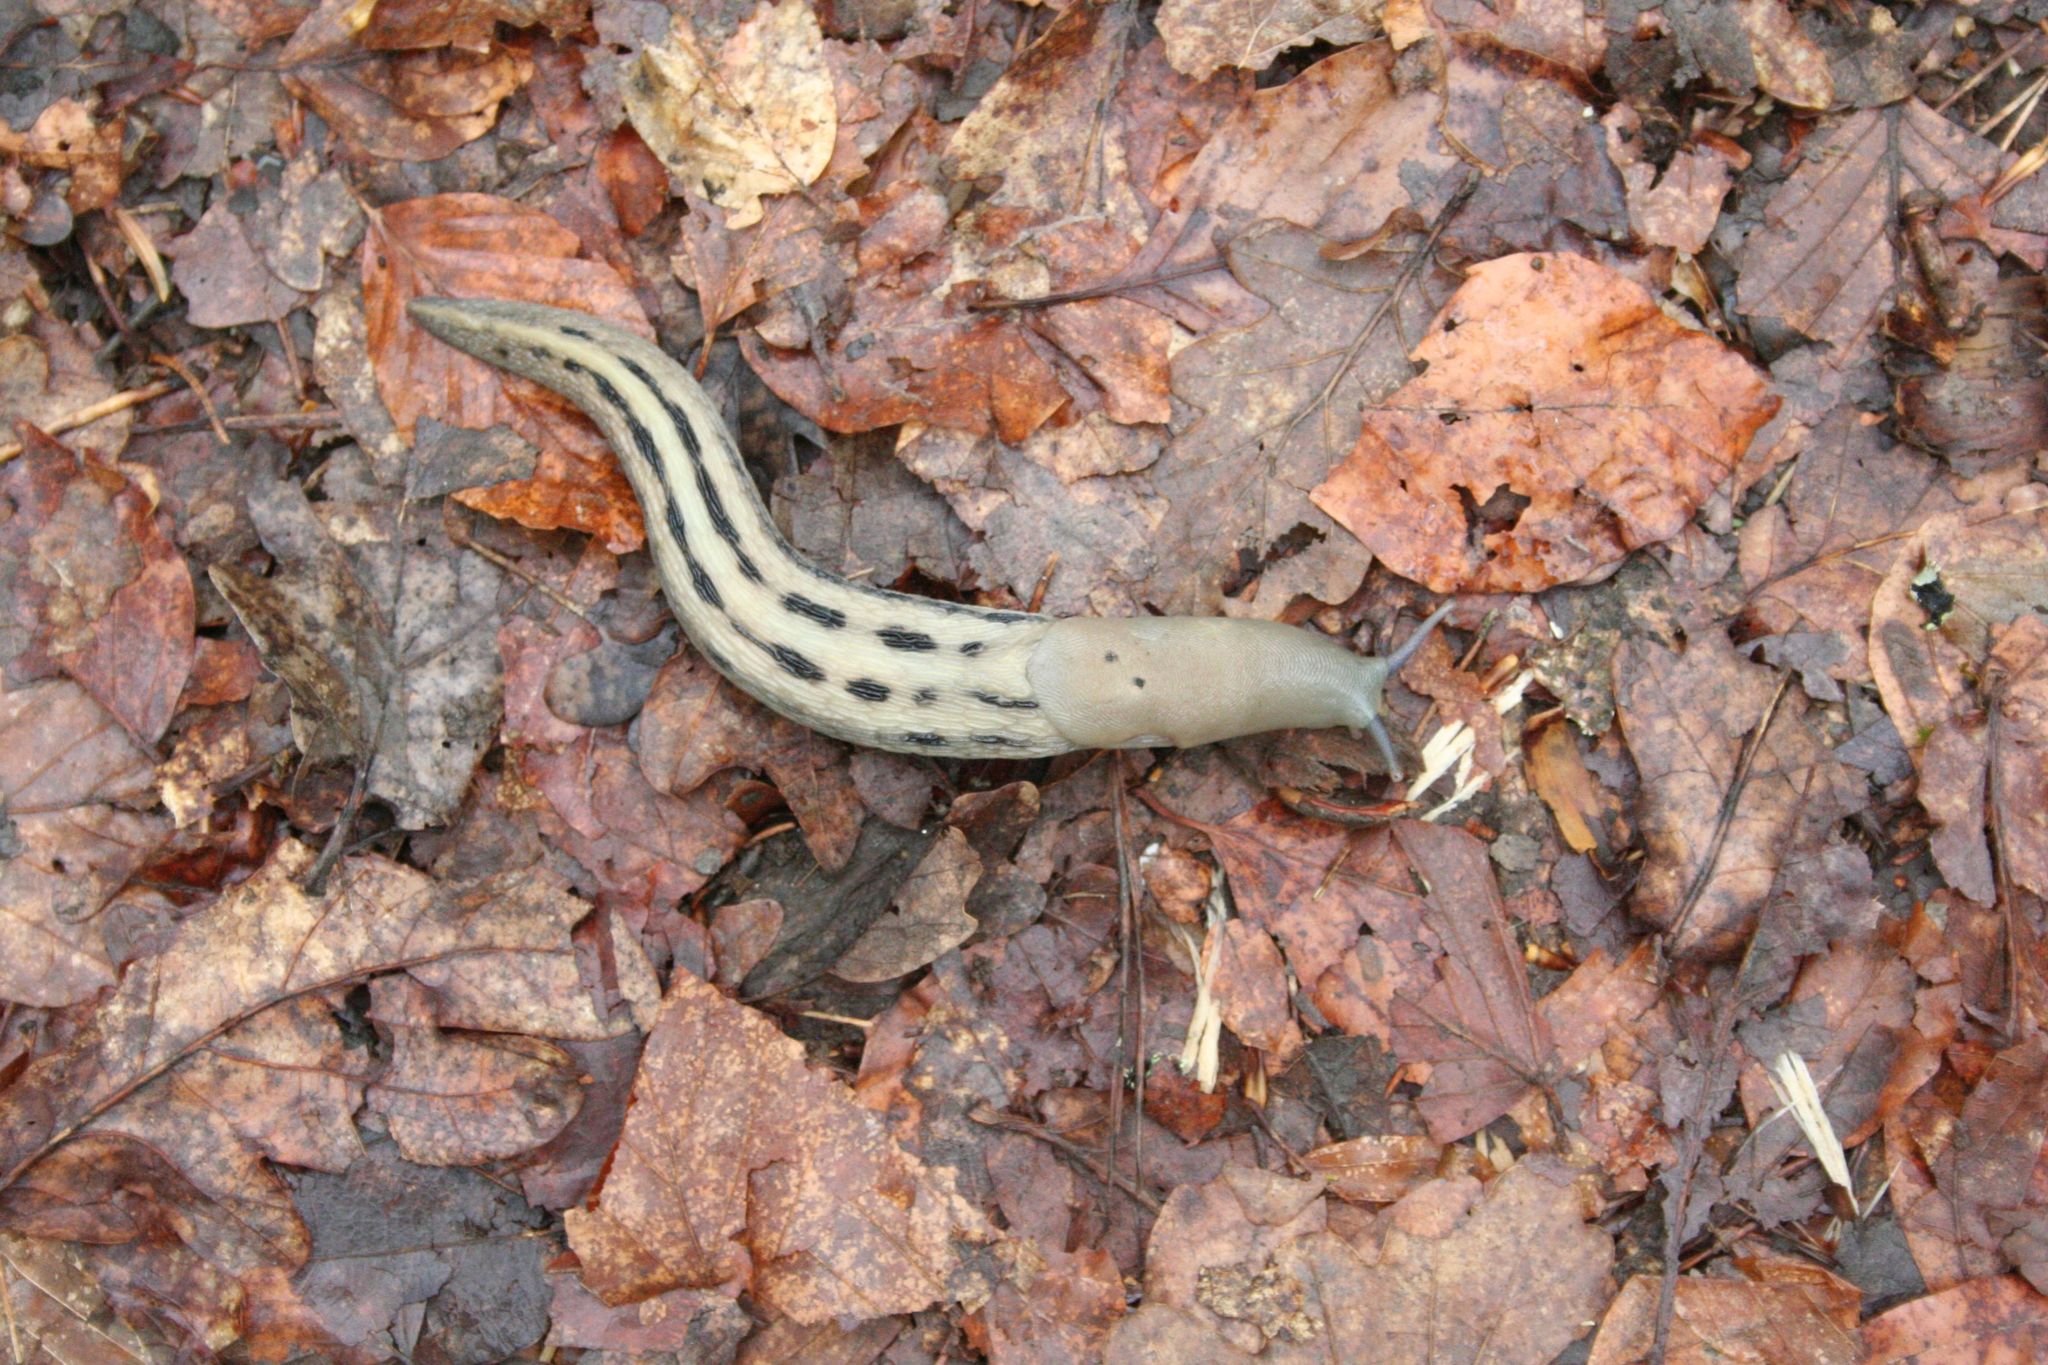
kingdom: Animalia
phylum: Mollusca
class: Gastropoda
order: Stylommatophora
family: Limacidae
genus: Limax
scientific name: Limax cinereoniger
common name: Ash-black slug
